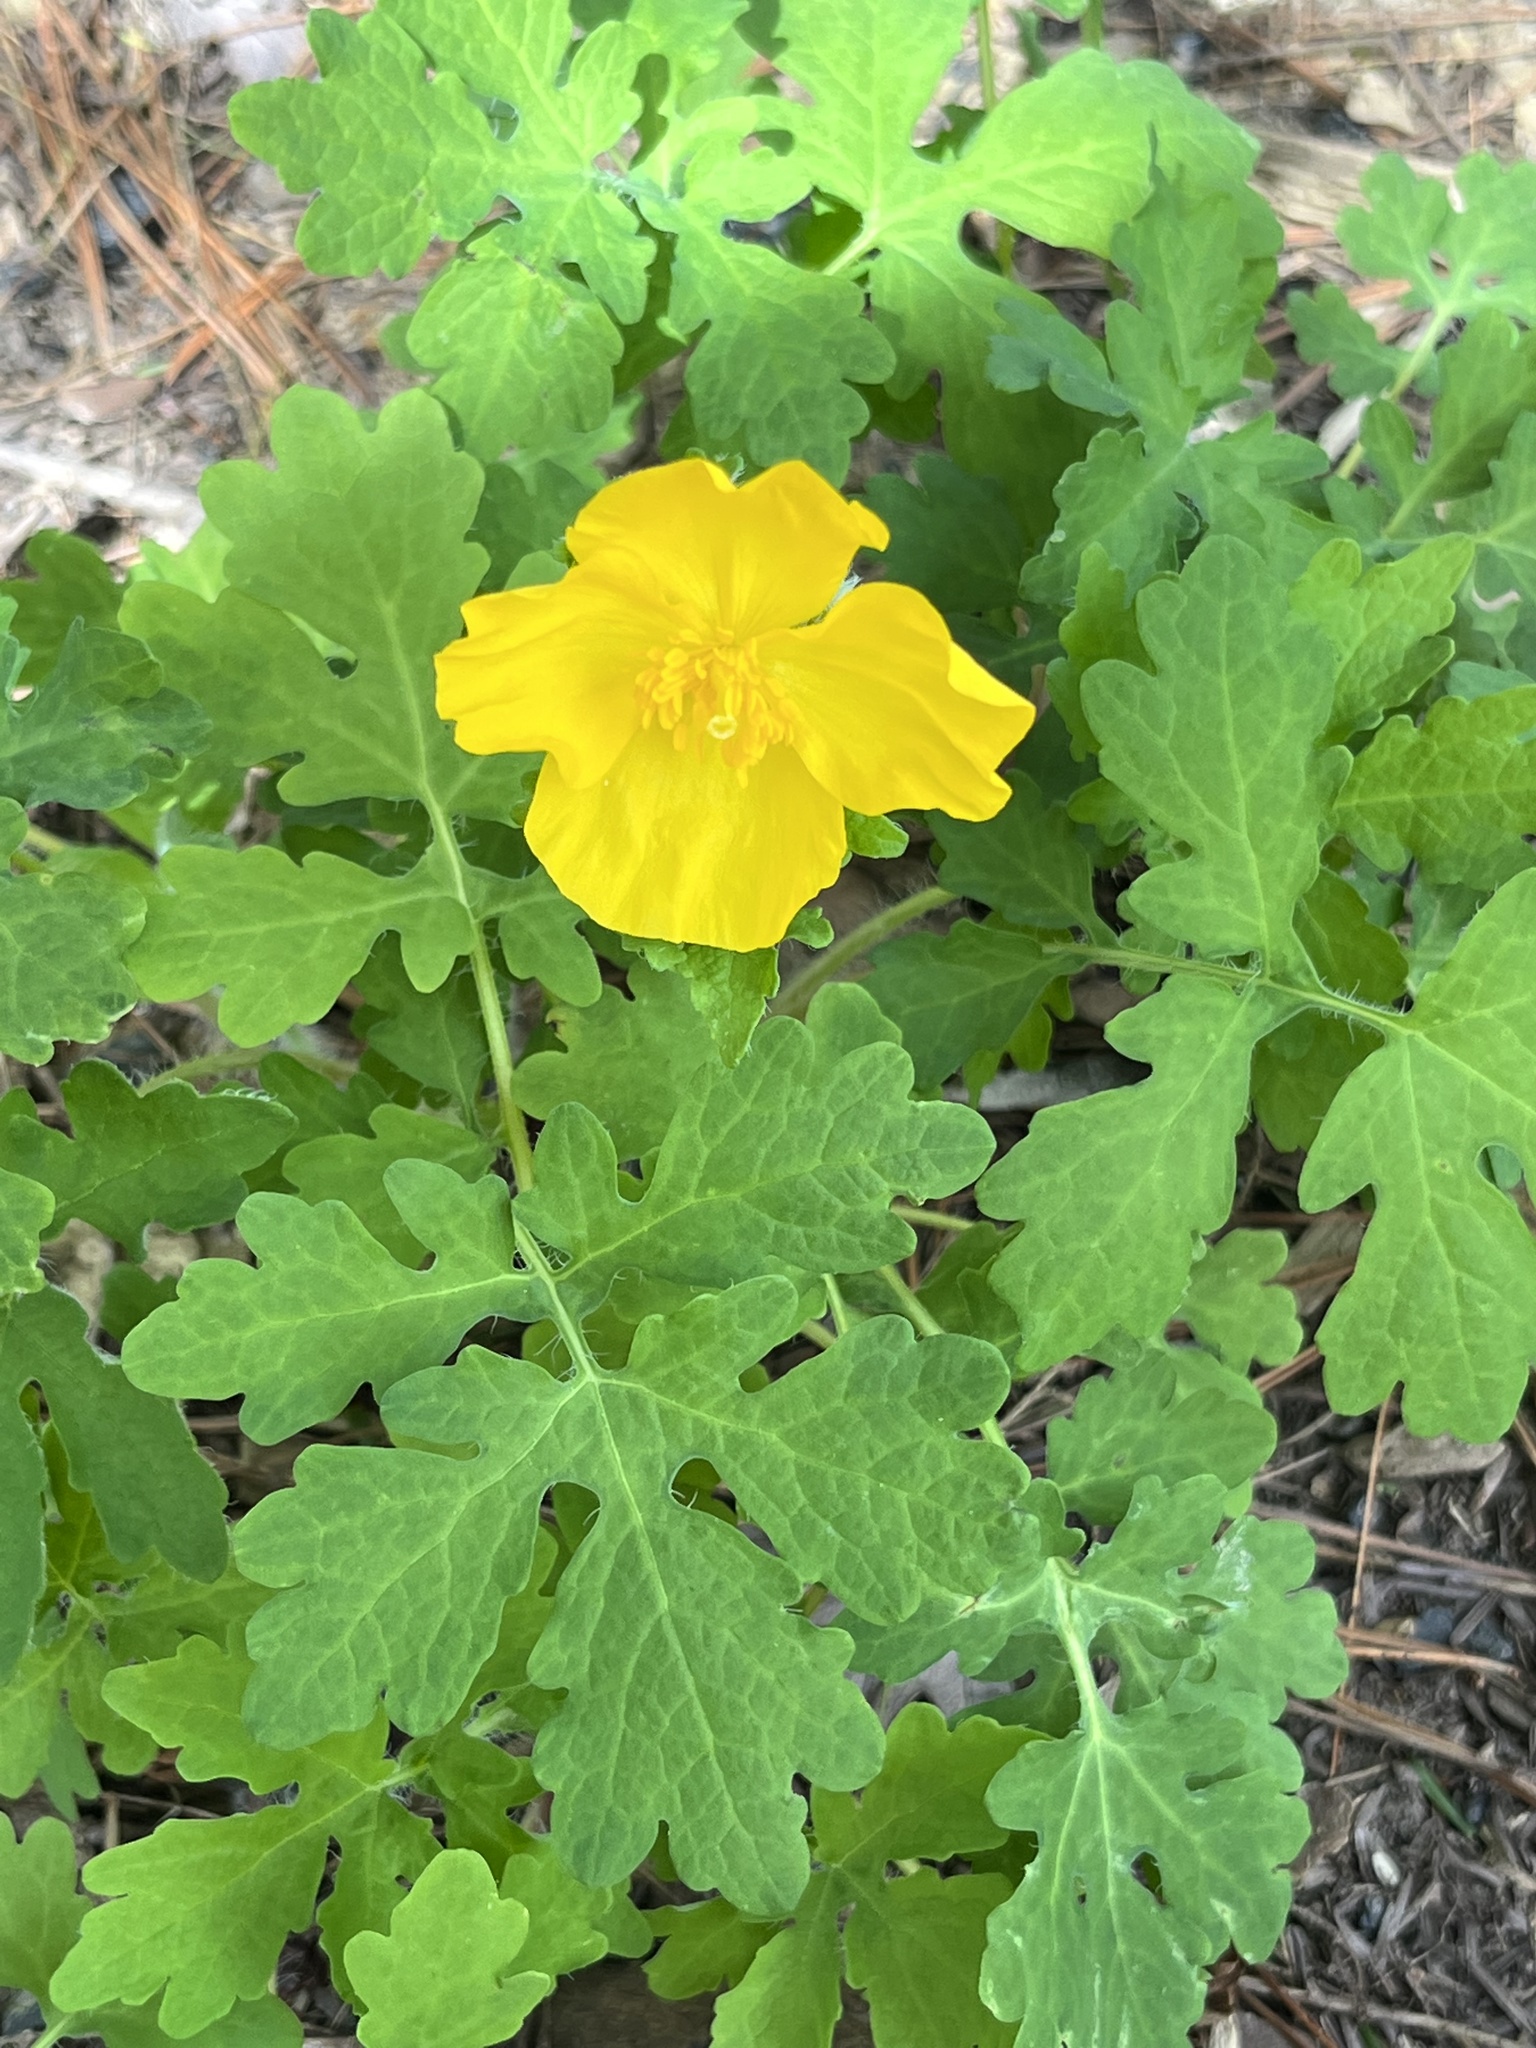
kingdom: Plantae
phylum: Tracheophyta
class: Magnoliopsida
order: Ranunculales
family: Papaveraceae
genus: Stylophorum
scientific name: Stylophorum diphyllum
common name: Celandine poppy
